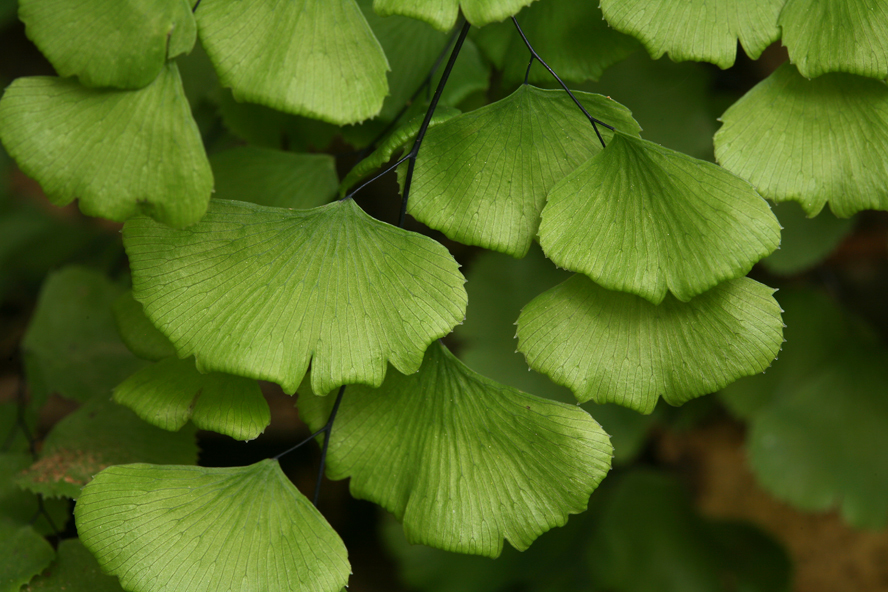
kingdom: Plantae
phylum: Tracheophyta
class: Polypodiopsida
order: Polypodiales
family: Pteridaceae
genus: Adiantum
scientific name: Adiantum jordanii
